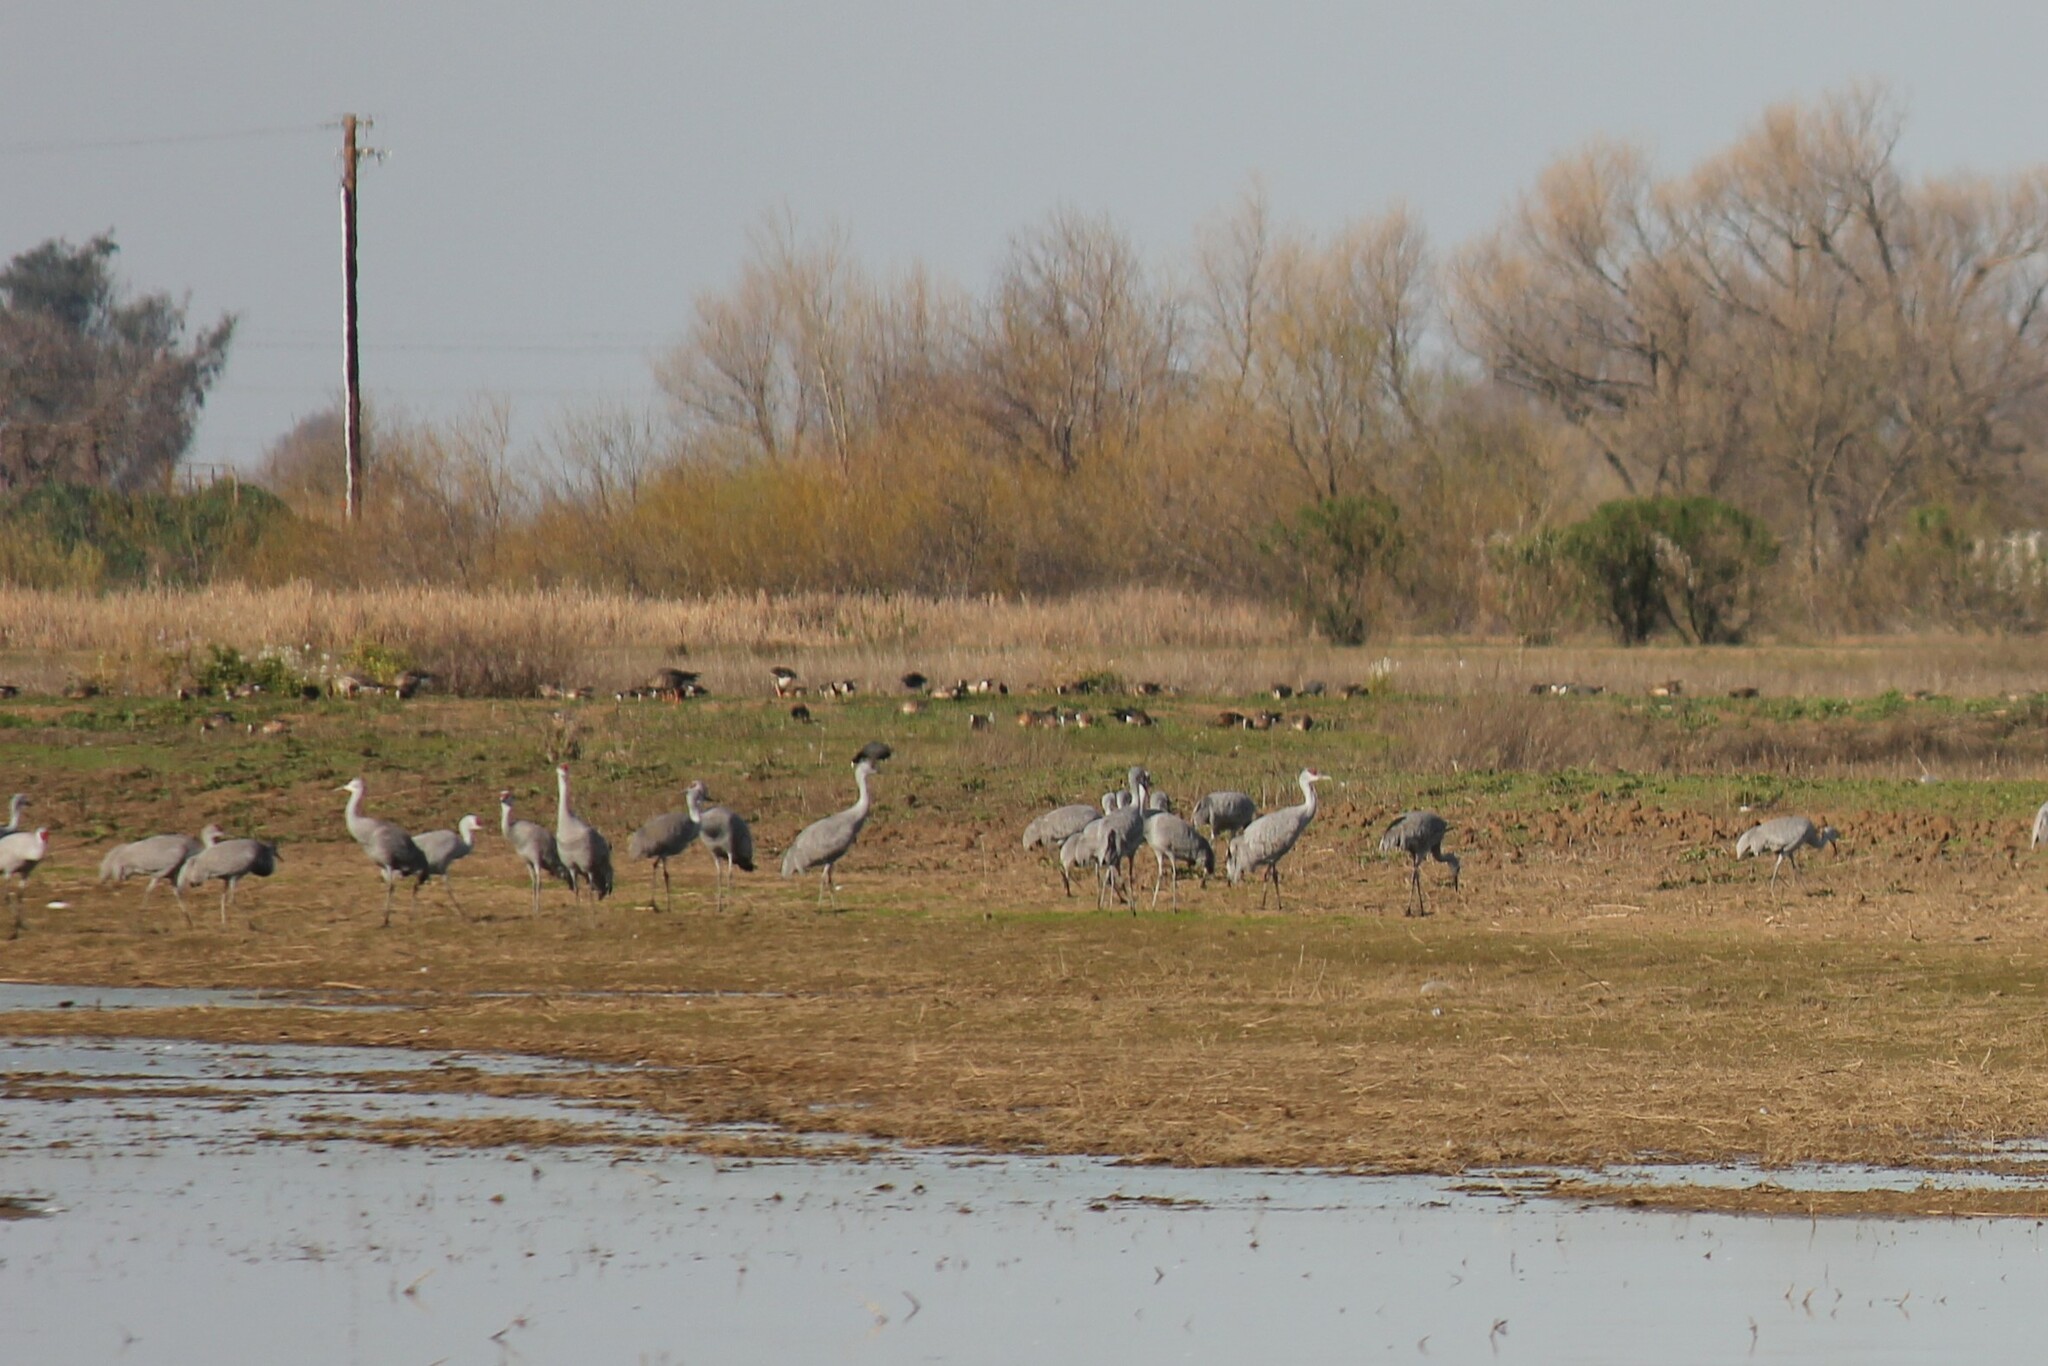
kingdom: Animalia
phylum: Chordata
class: Aves
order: Gruiformes
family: Gruidae
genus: Grus
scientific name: Grus canadensis
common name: Sandhill crane
